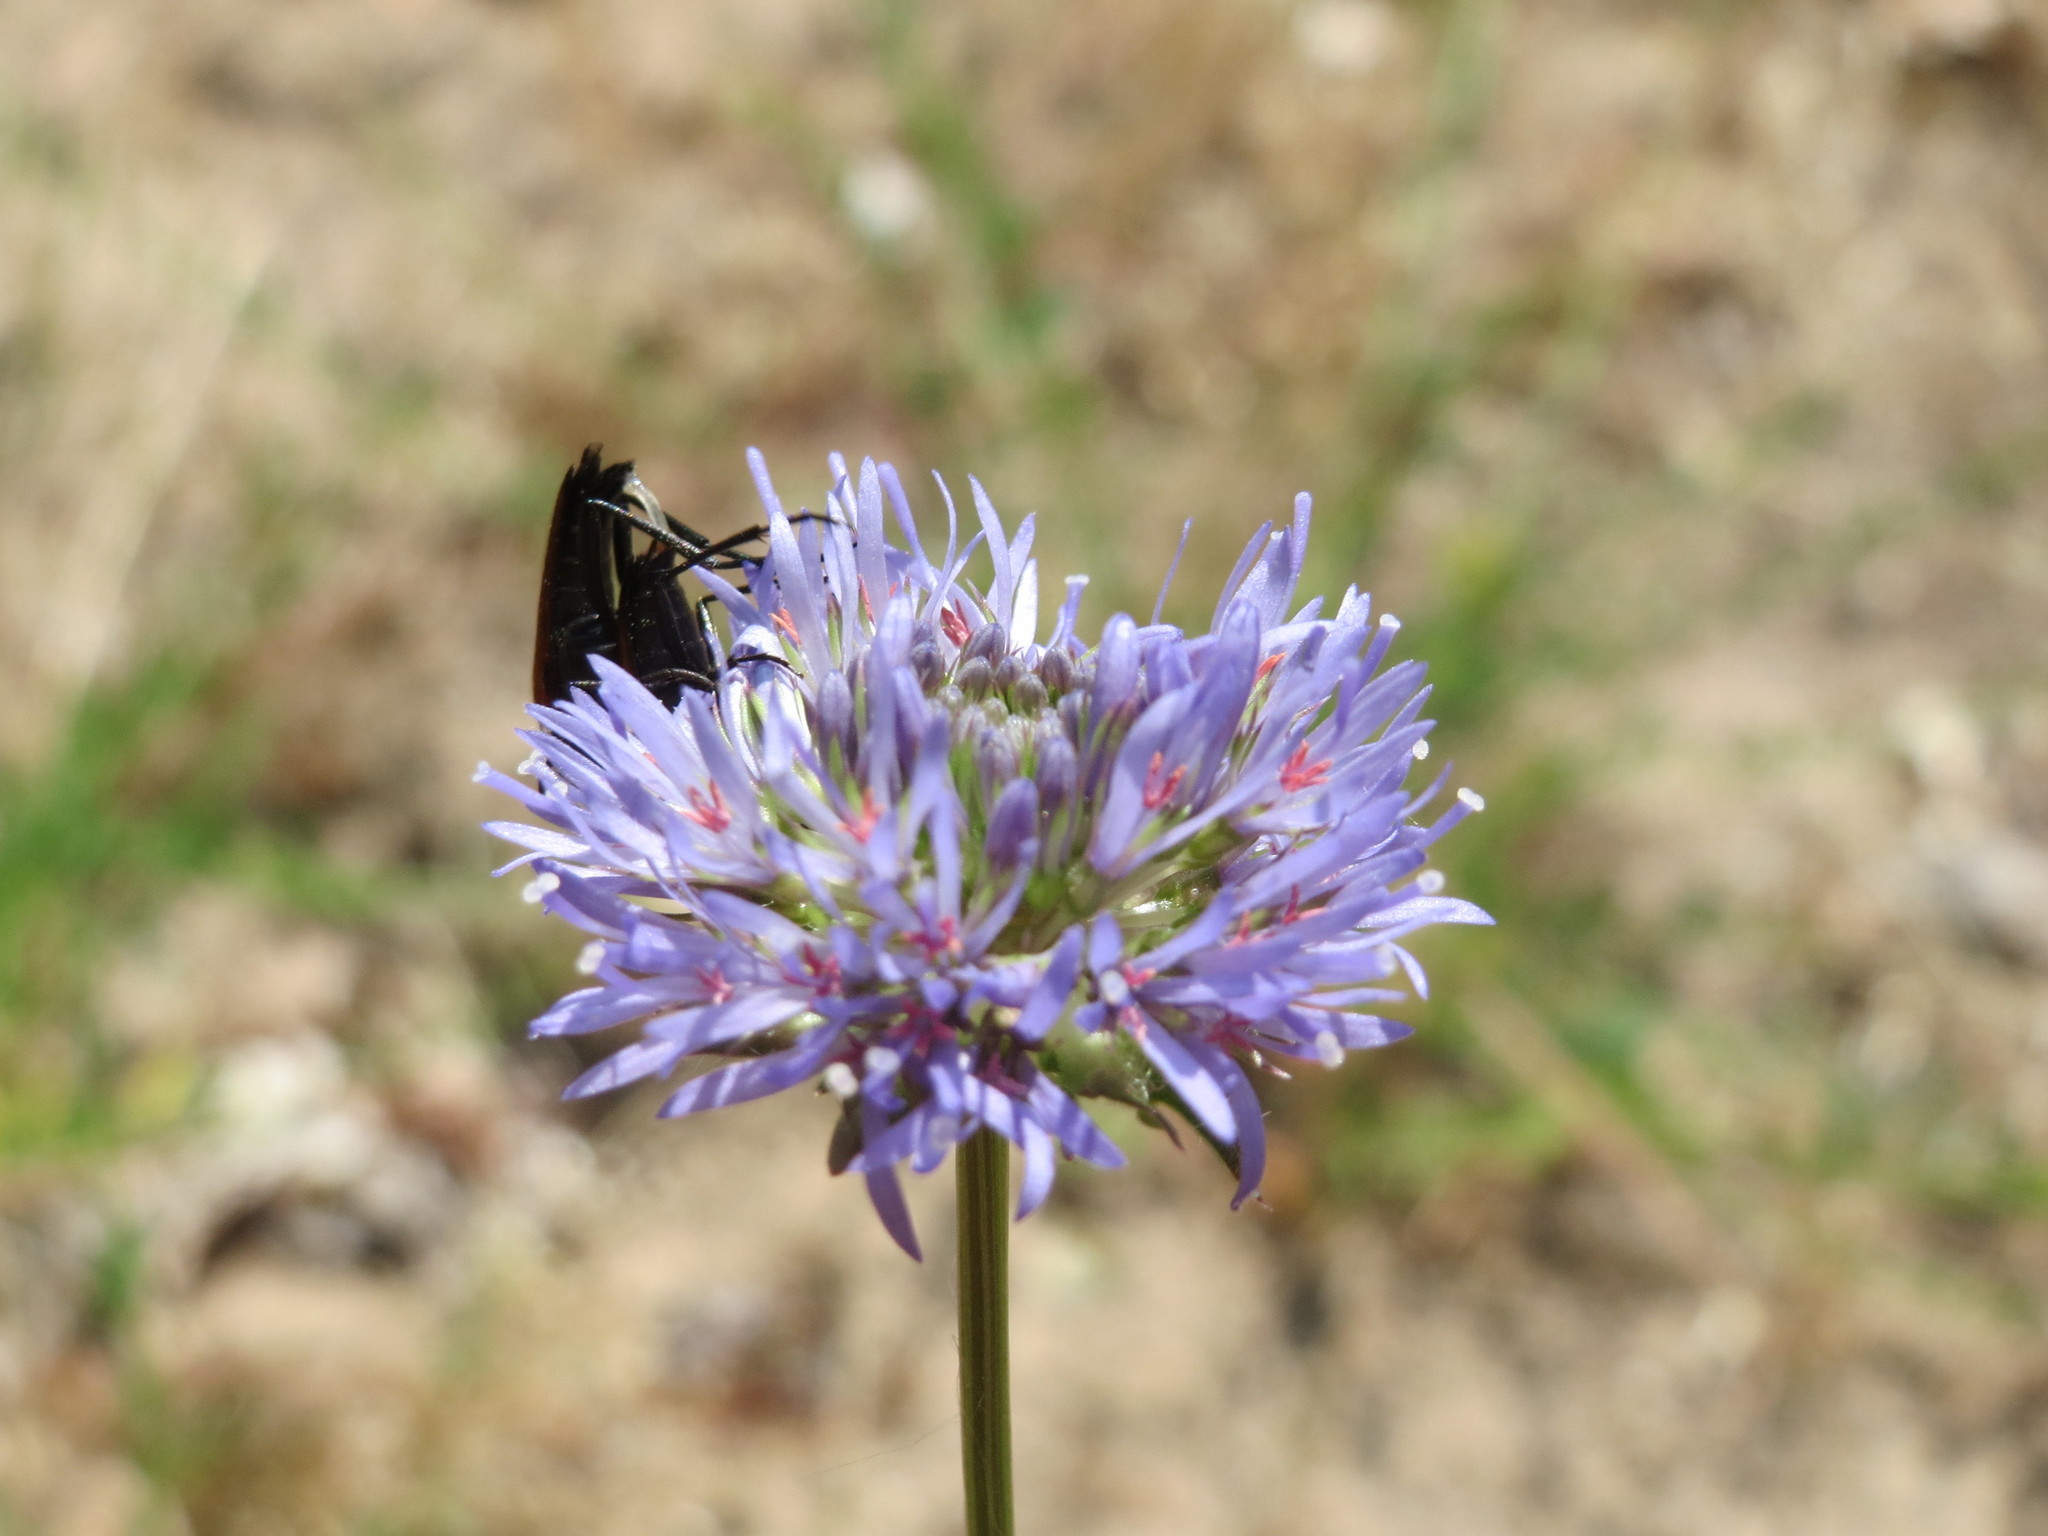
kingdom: Plantae
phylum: Tracheophyta
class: Magnoliopsida
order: Asterales
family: Campanulaceae
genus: Jasione
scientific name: Jasione montana
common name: Sheep's-bit
